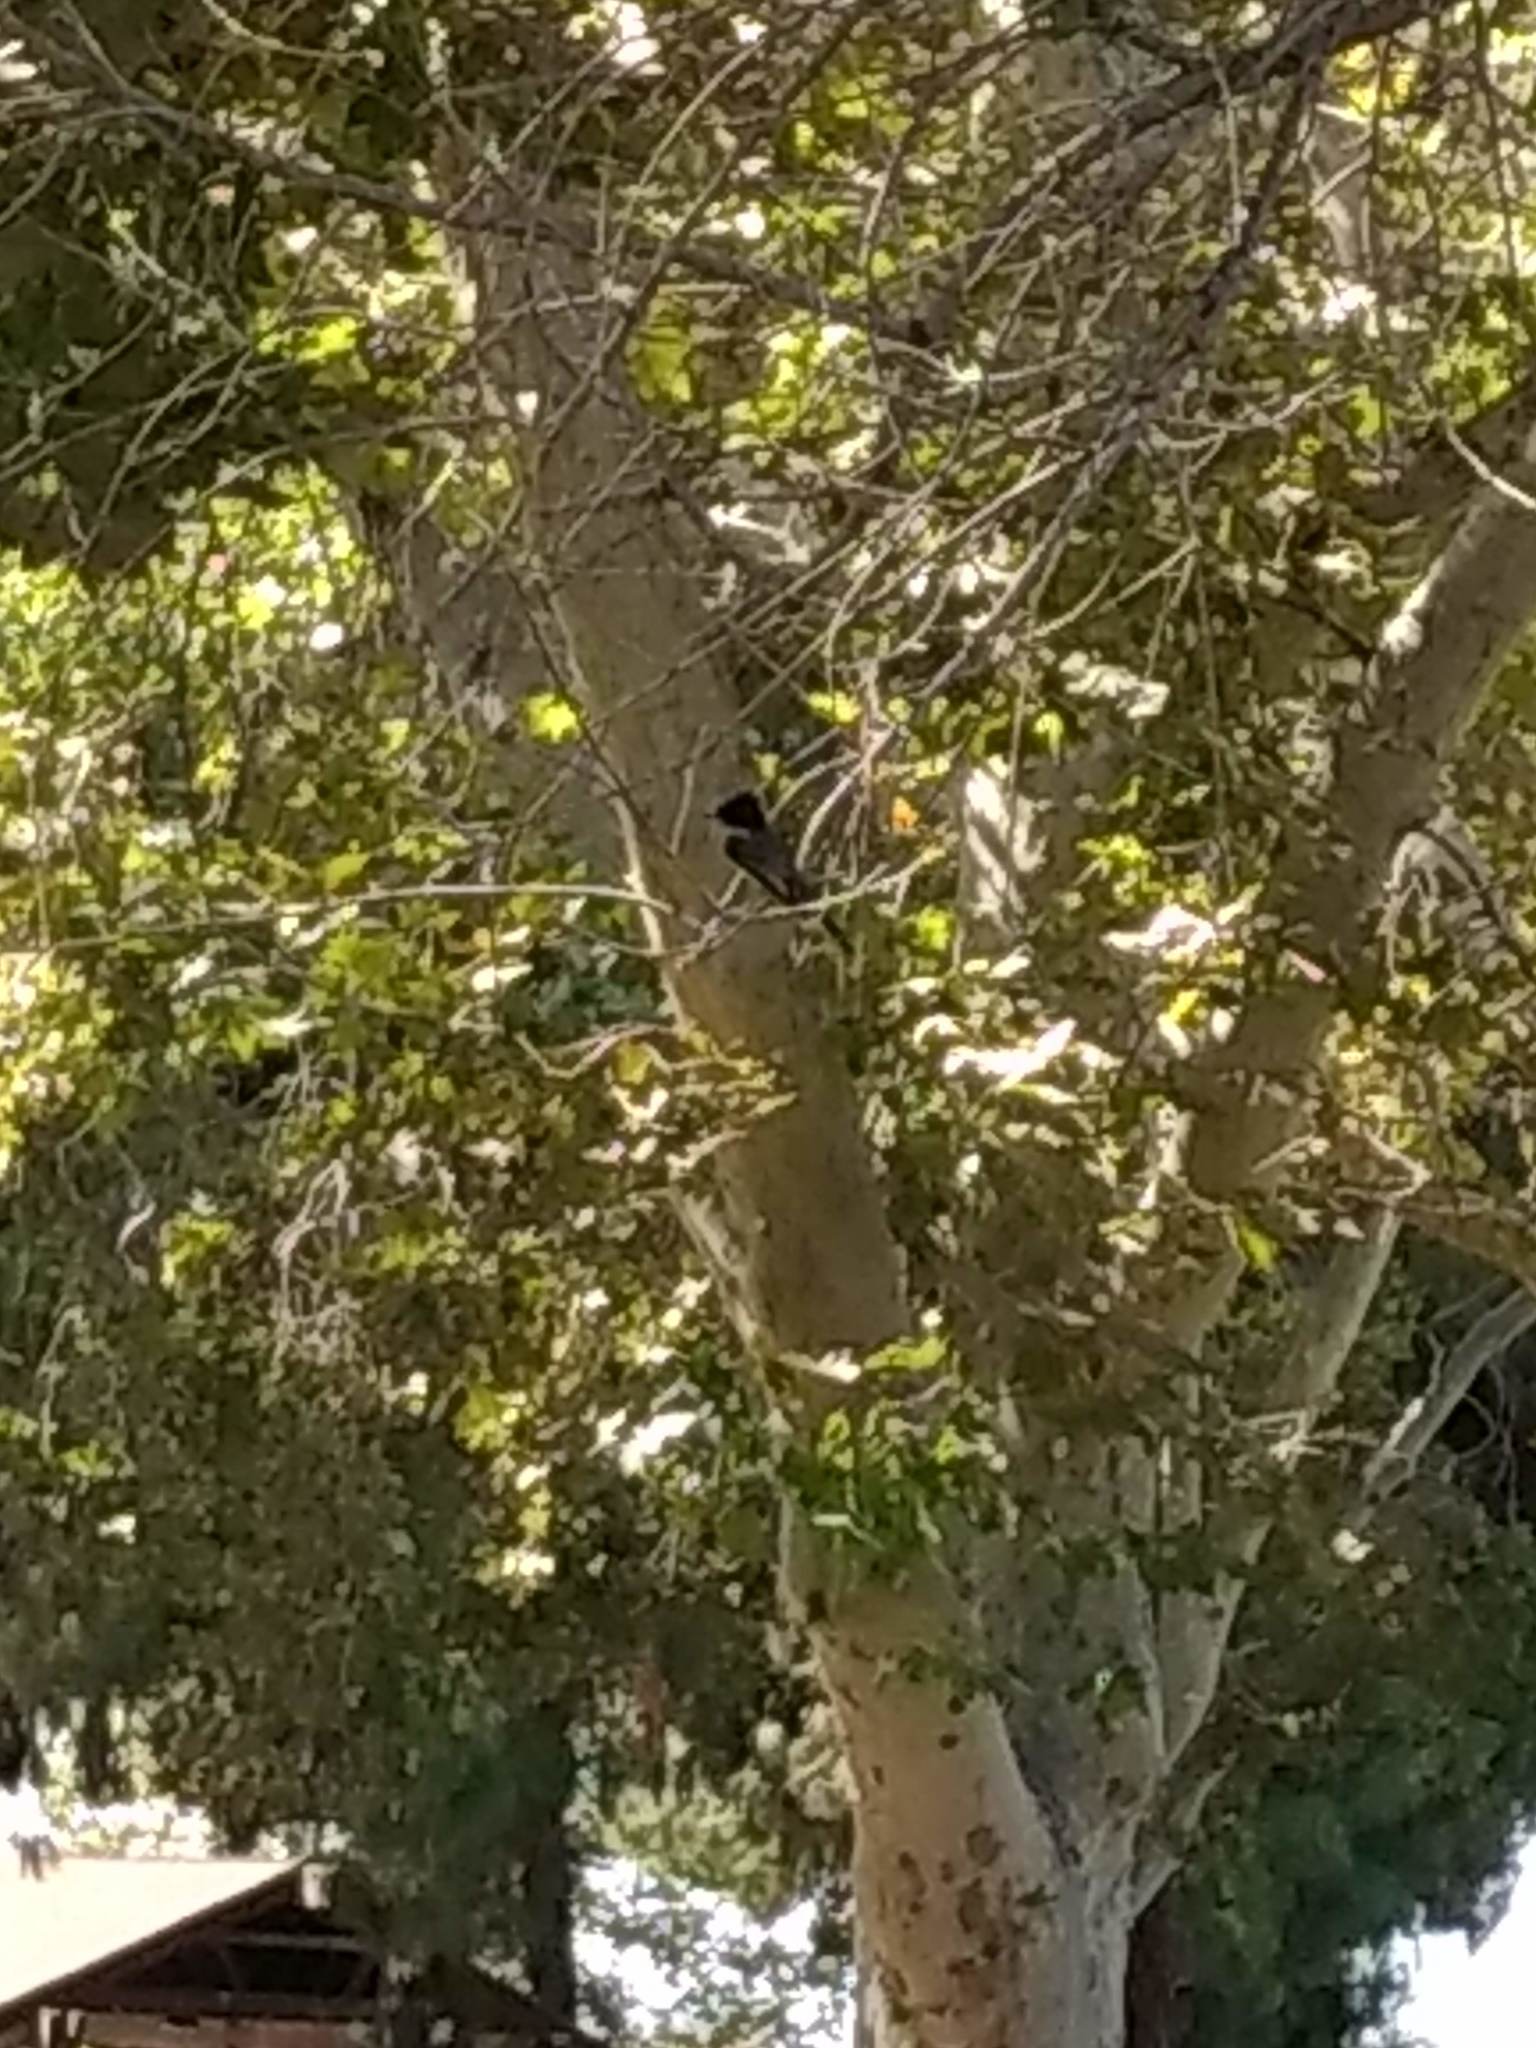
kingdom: Animalia
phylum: Chordata
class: Aves
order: Passeriformes
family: Tyrannidae
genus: Sayornis
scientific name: Sayornis nigricans
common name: Black phoebe
